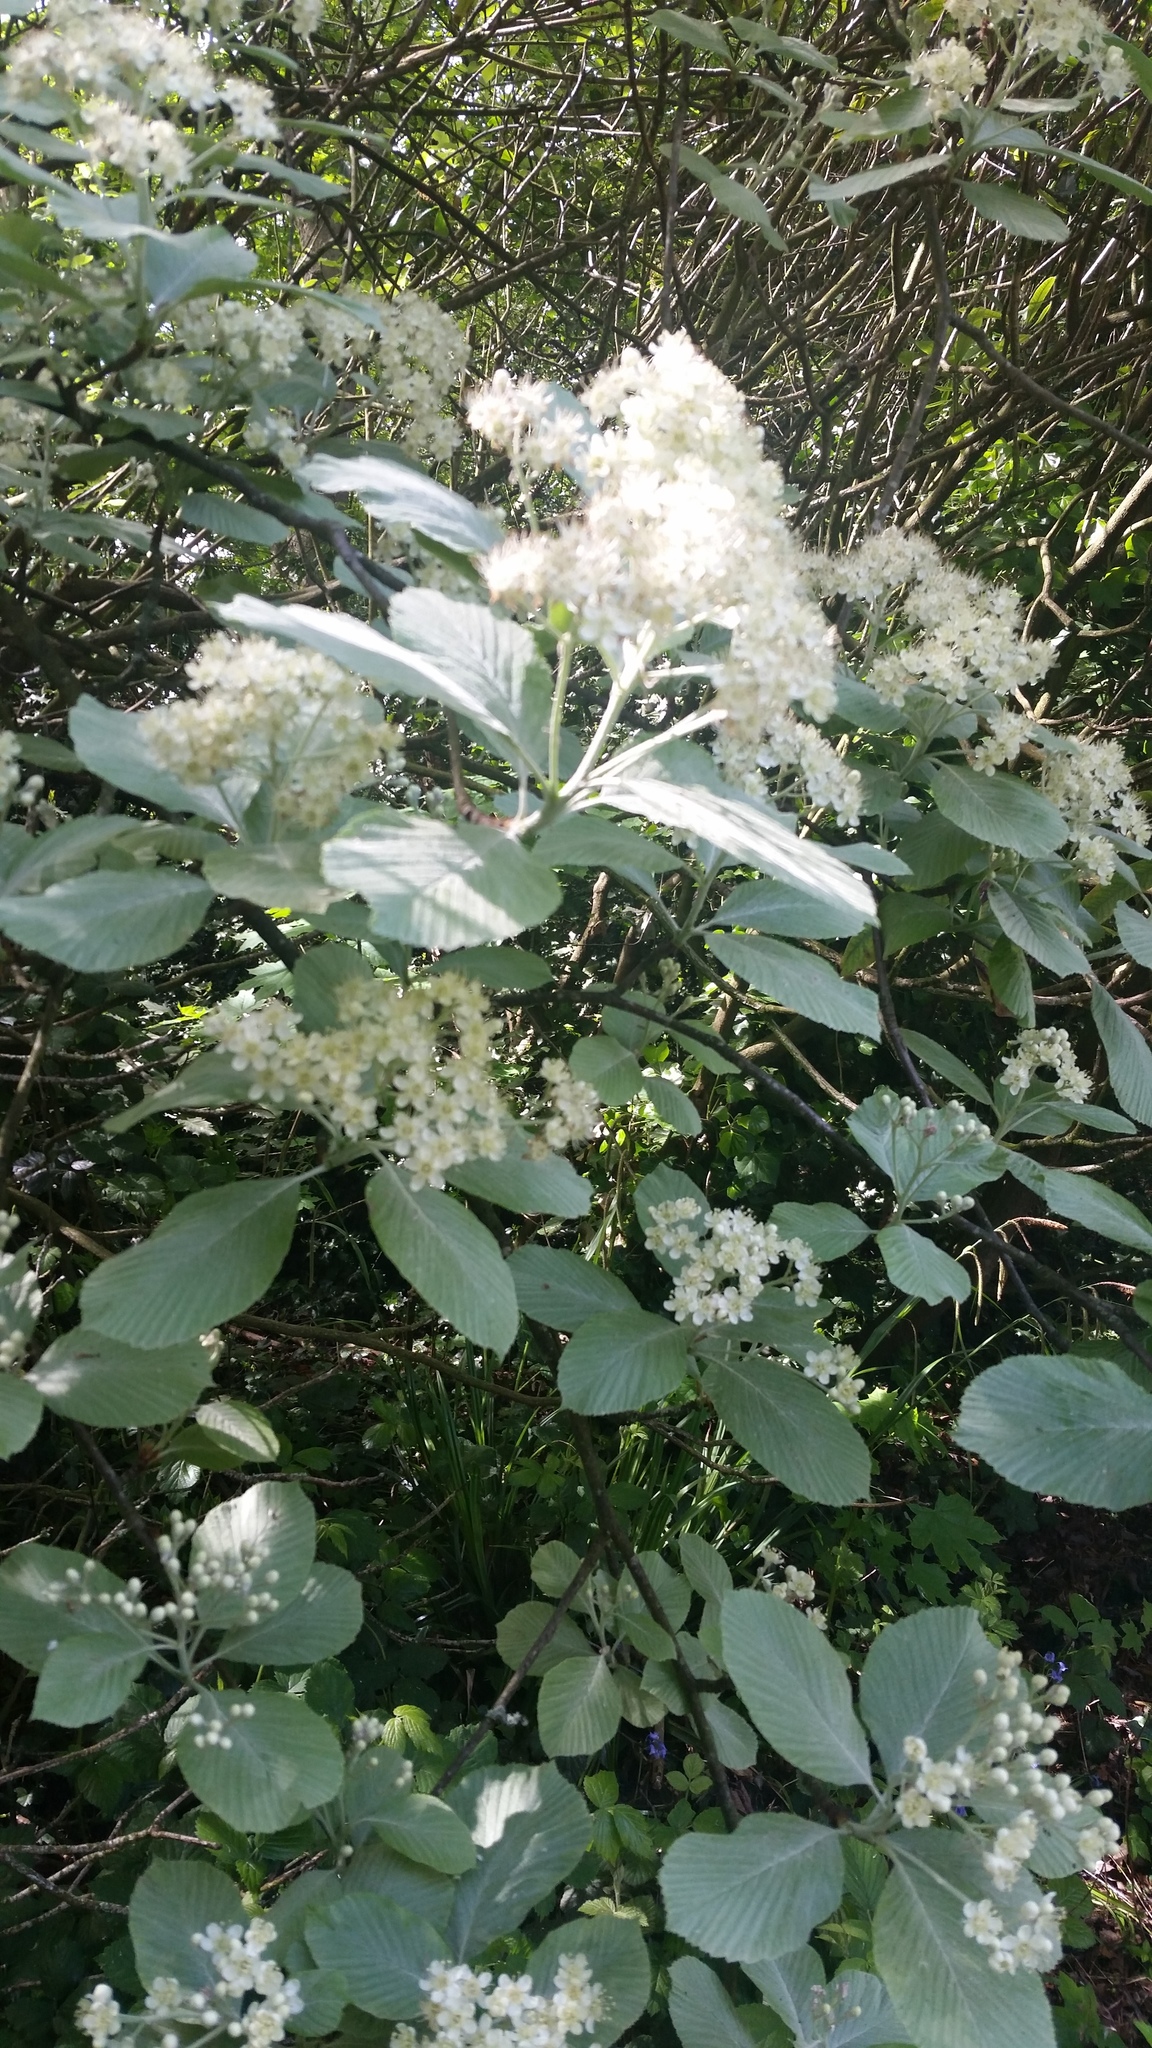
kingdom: Plantae
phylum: Tracheophyta
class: Magnoliopsida
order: Rosales
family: Rosaceae
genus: Aria
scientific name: Aria edulis
